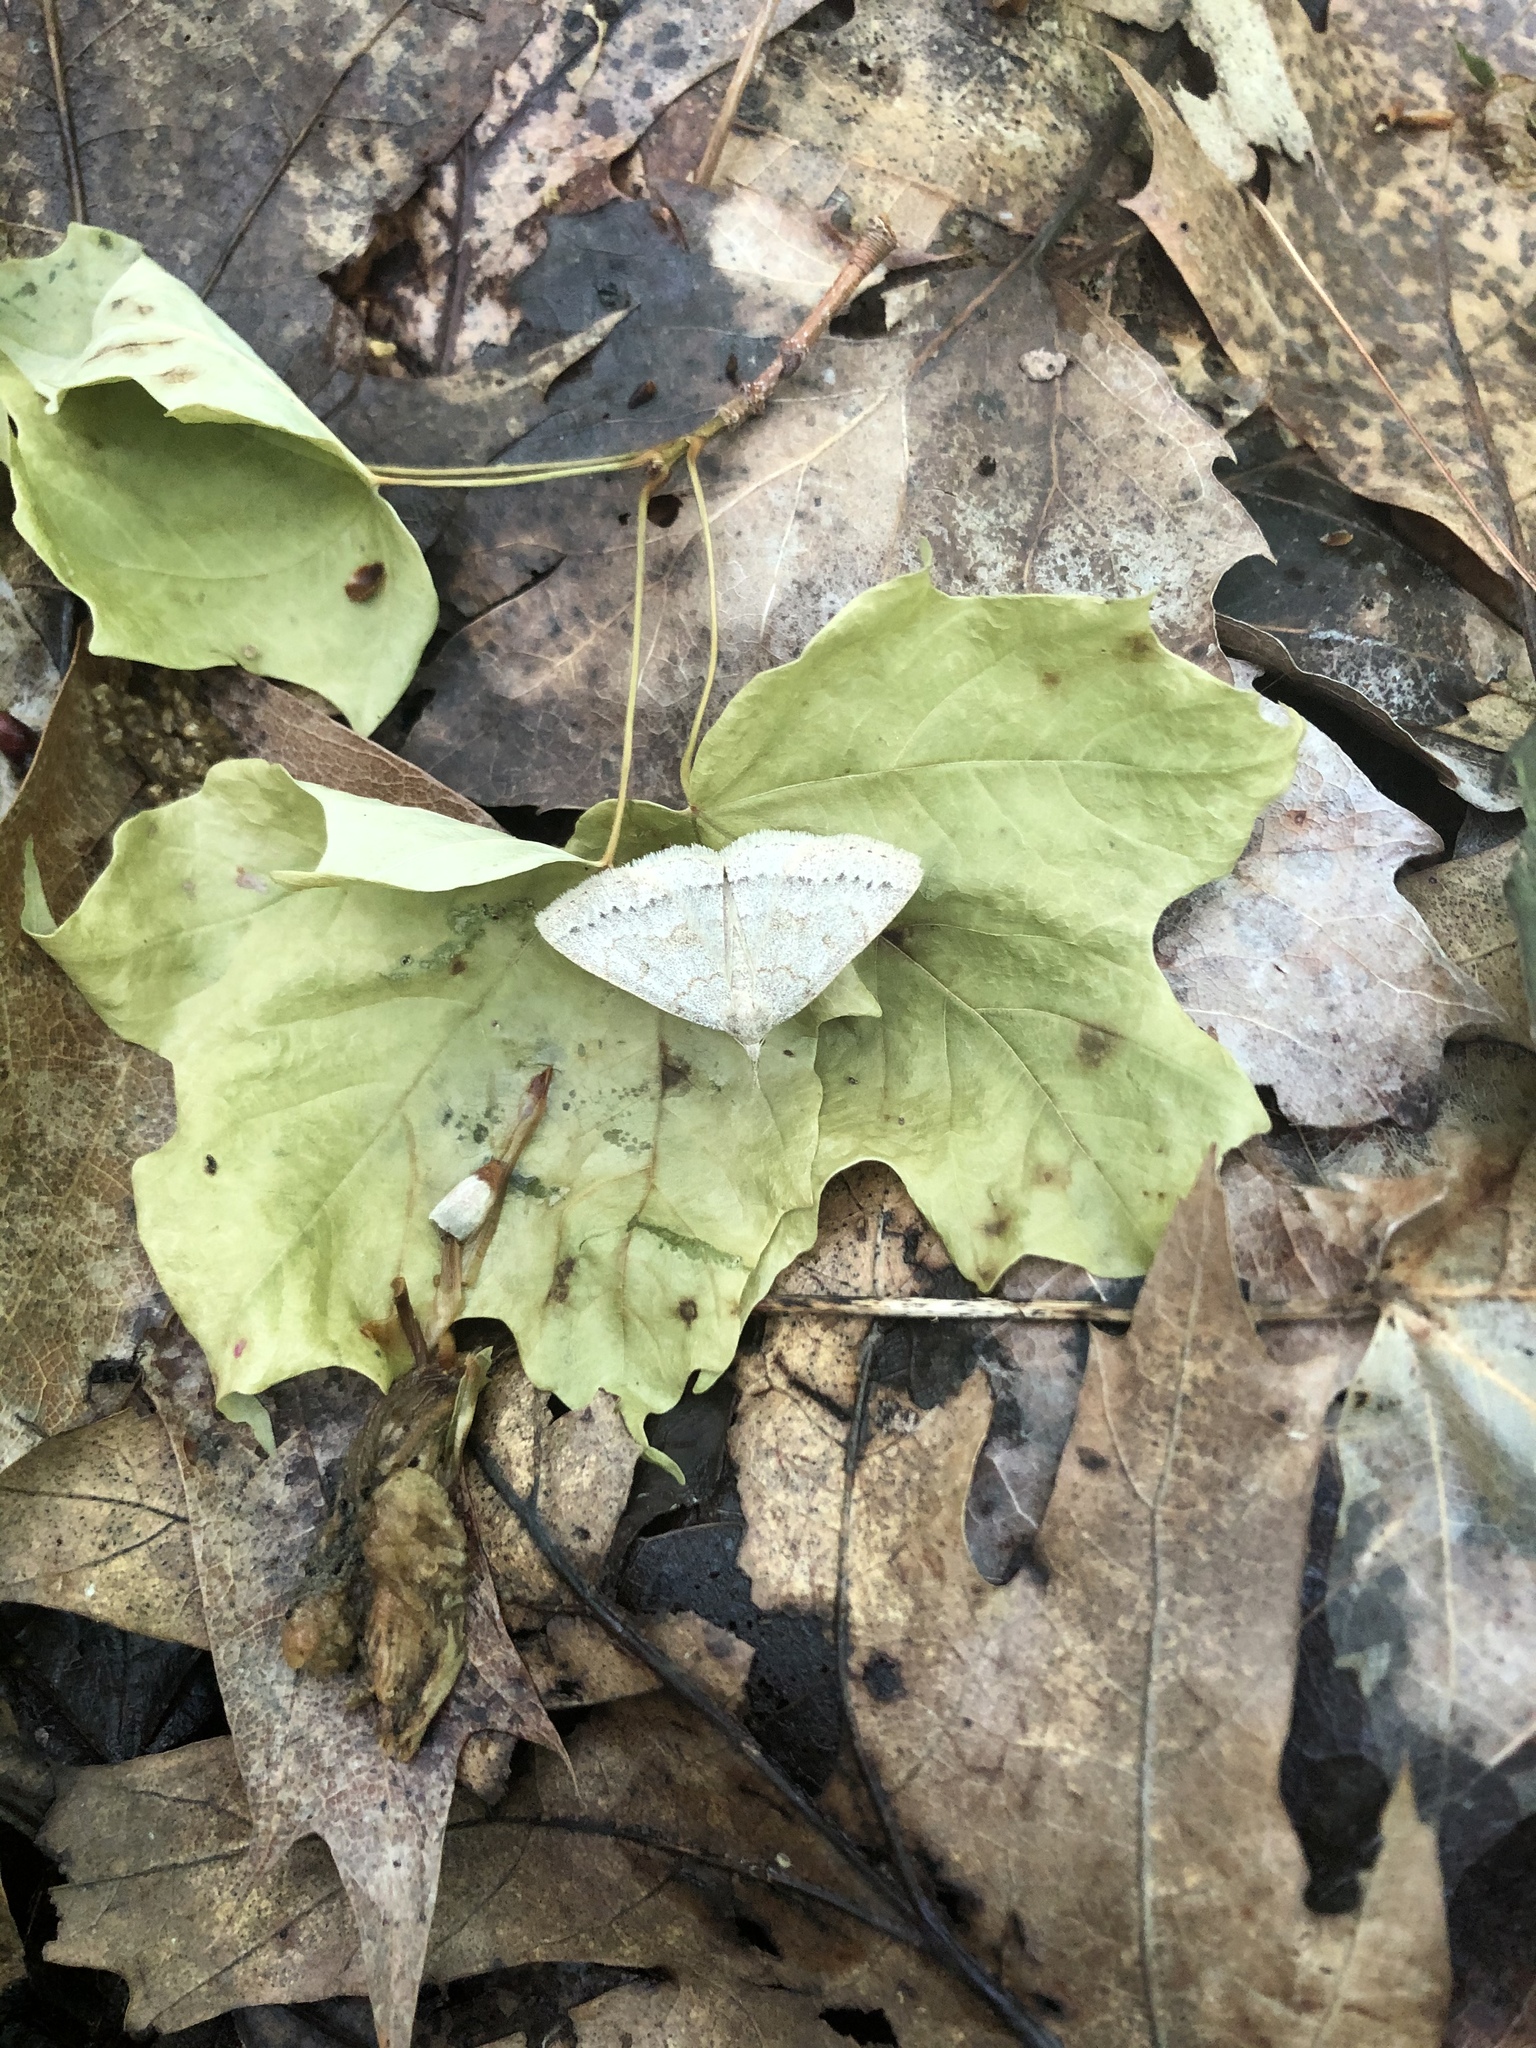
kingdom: Animalia
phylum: Arthropoda
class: Insecta
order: Lepidoptera
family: Erebidae
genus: Macrochilo
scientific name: Macrochilo morbidalis
